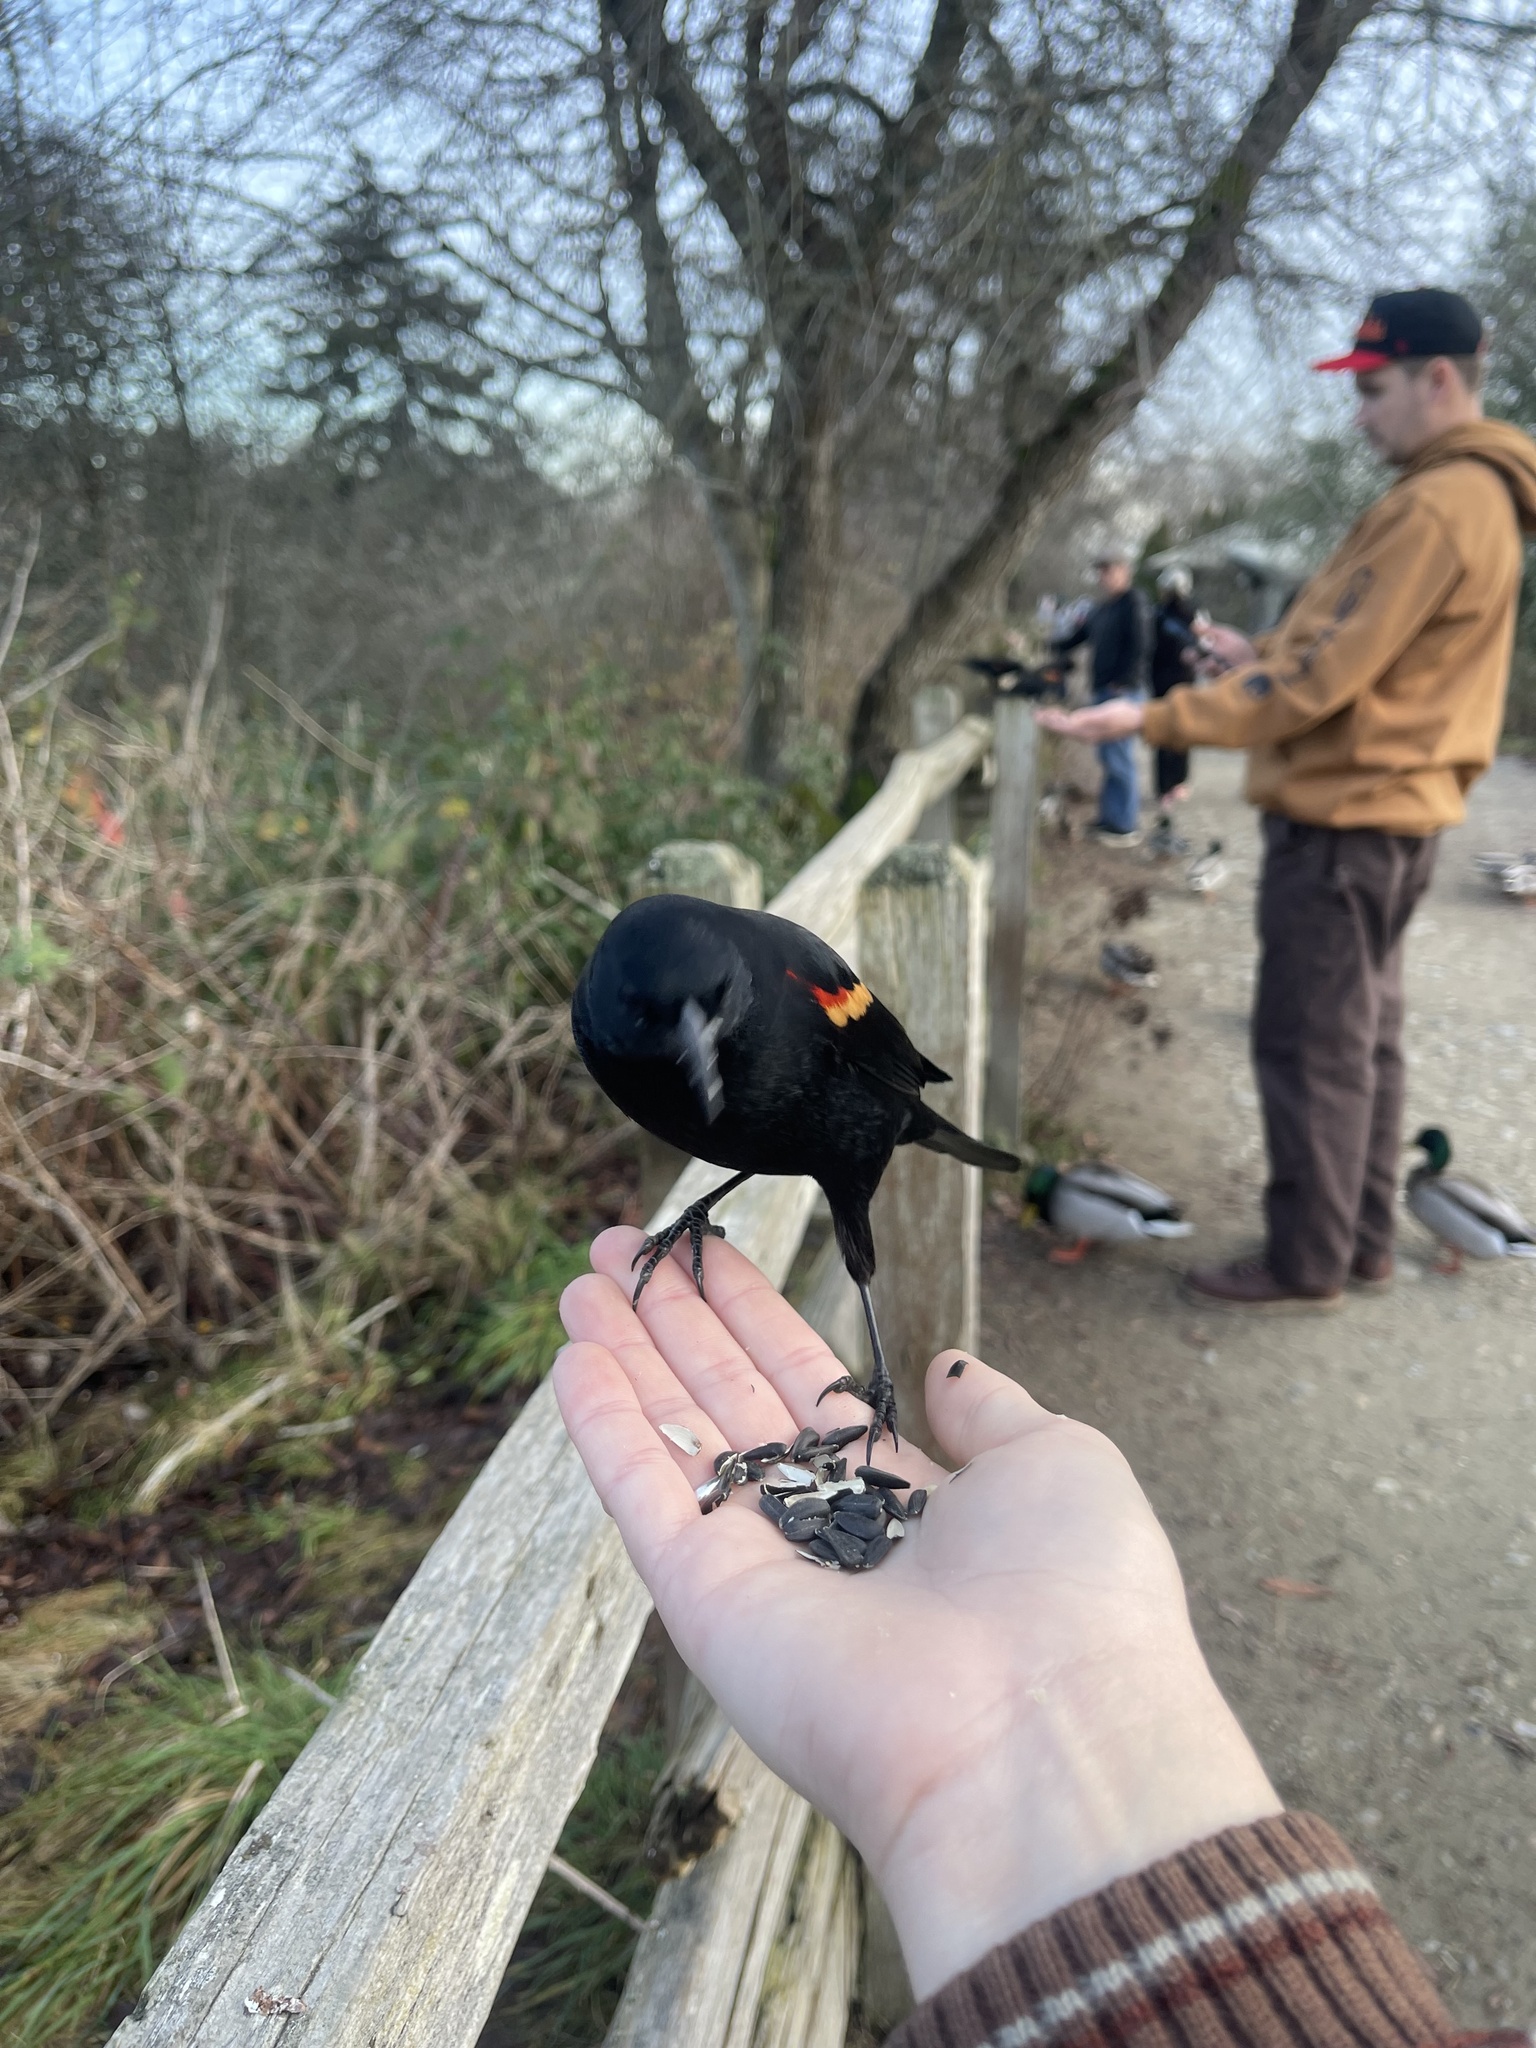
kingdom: Animalia
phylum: Chordata
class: Aves
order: Passeriformes
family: Icteridae
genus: Agelaius
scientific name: Agelaius phoeniceus
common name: Red-winged blackbird
